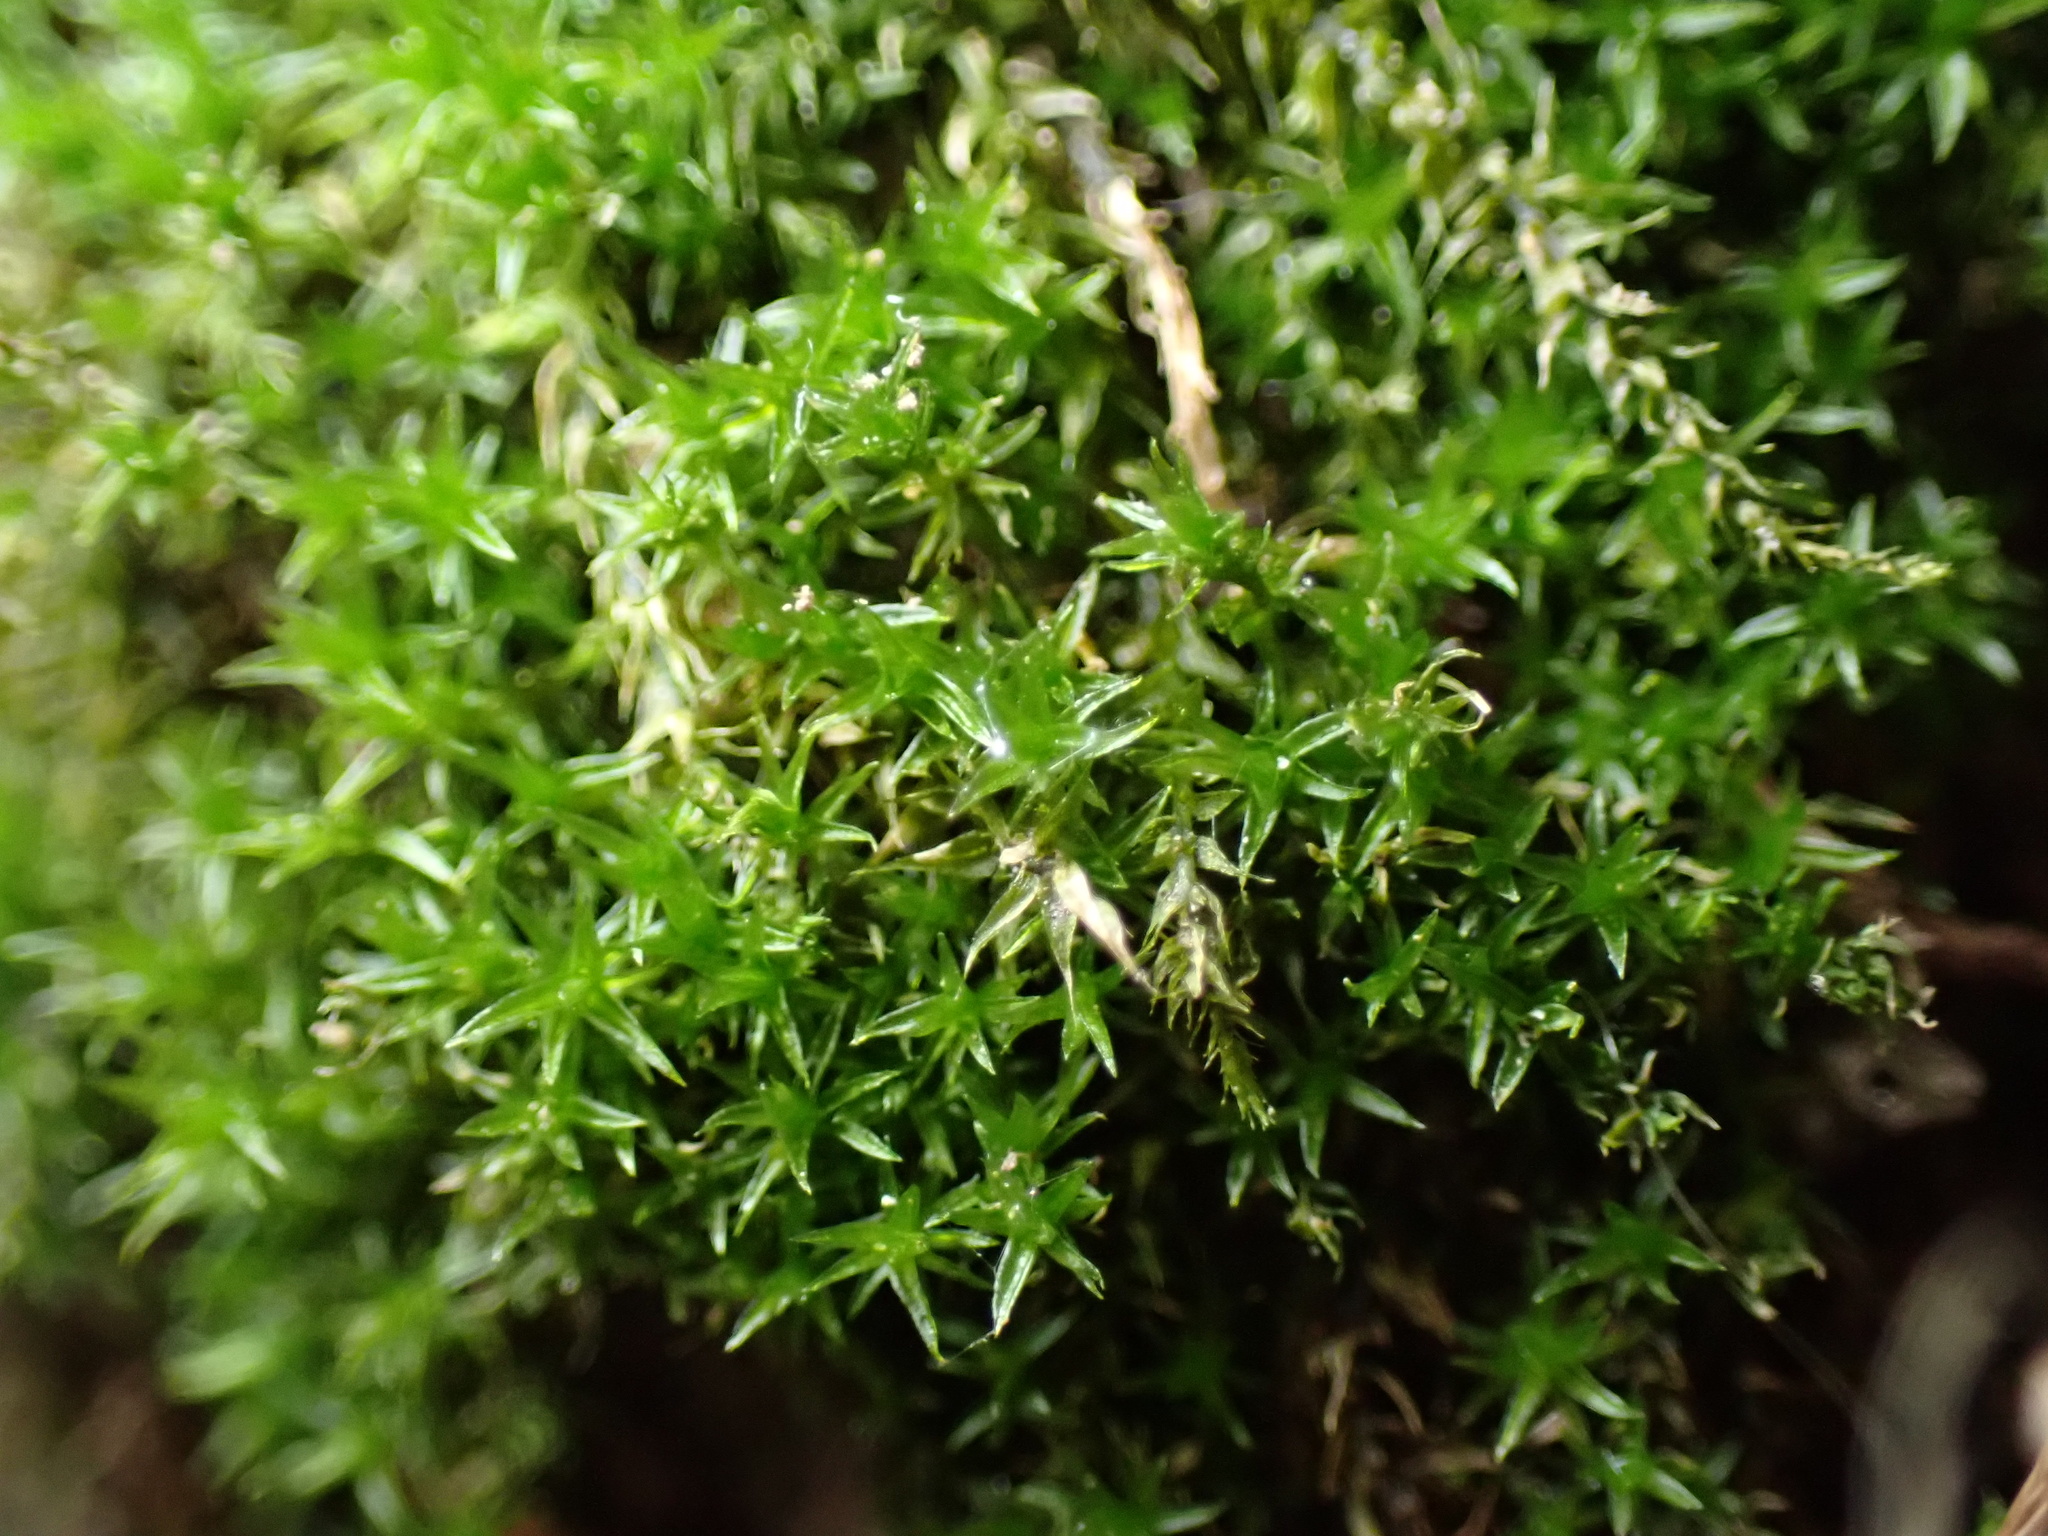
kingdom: Plantae
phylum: Bryophyta
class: Bryopsida
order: Dicranales
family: Ditrichaceae
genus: Ceratodon
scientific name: Ceratodon purpureus
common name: Redshank
